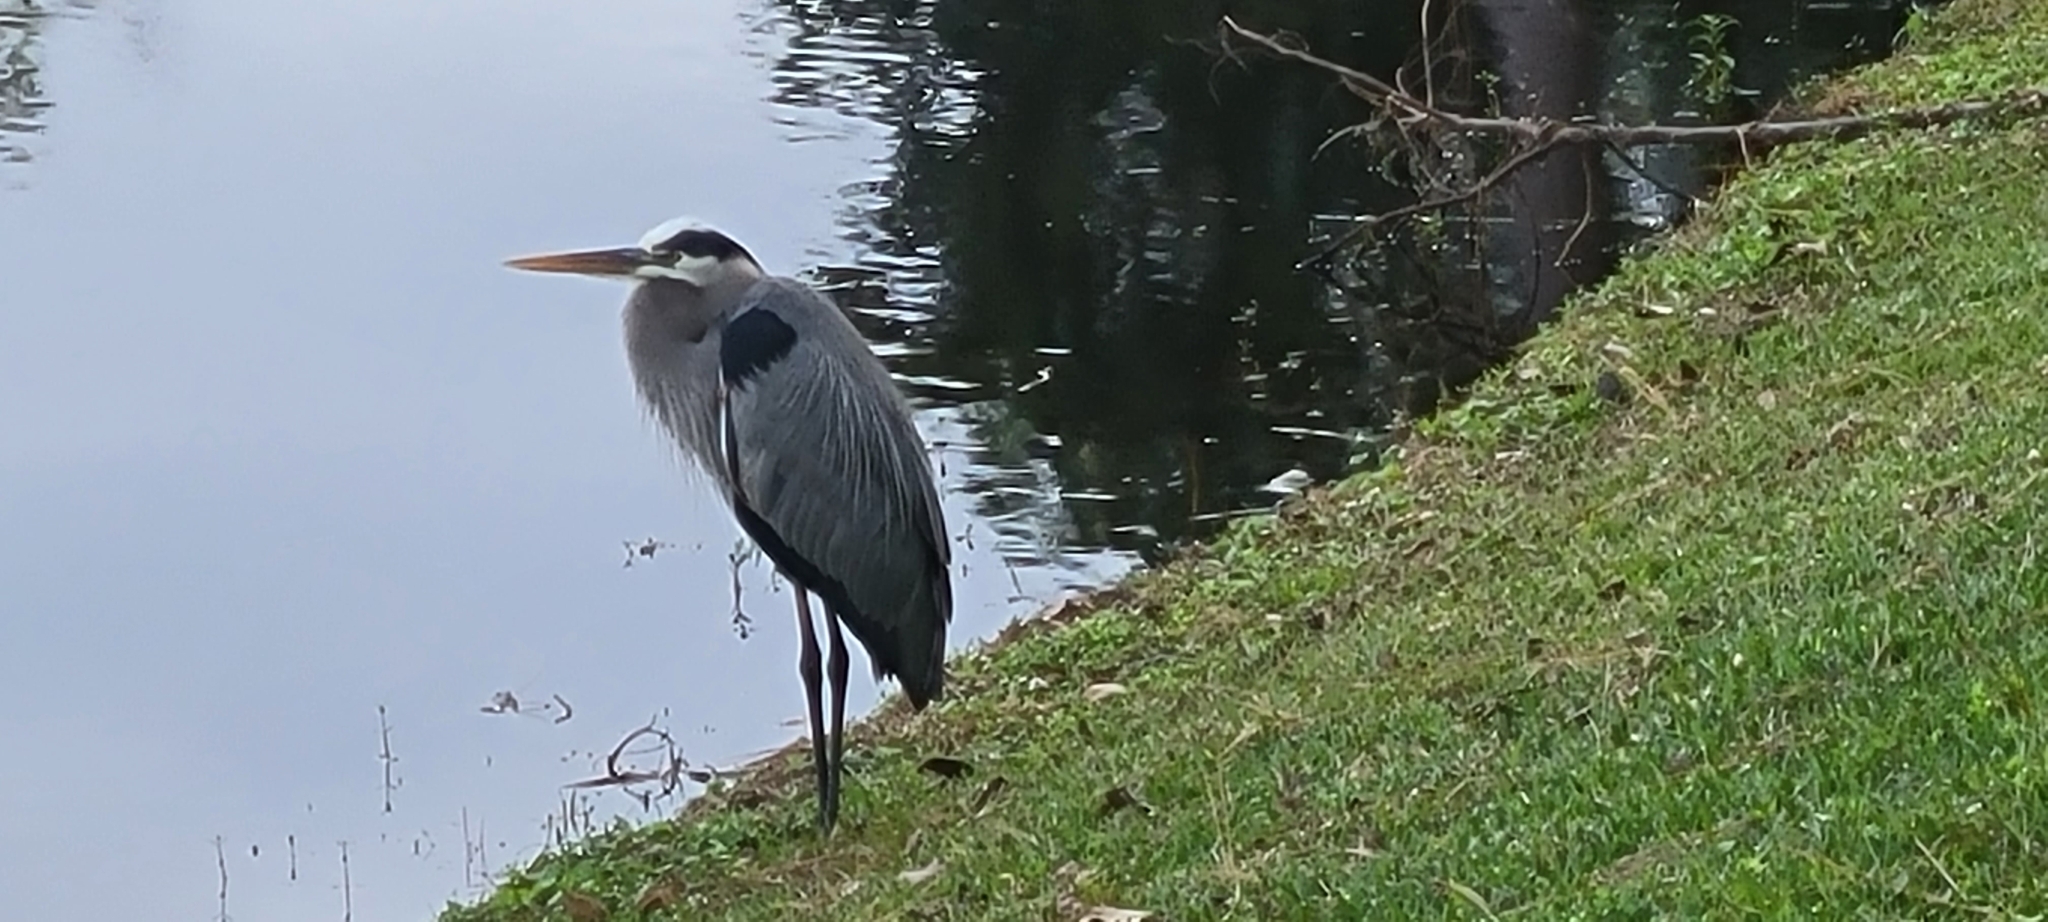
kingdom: Animalia
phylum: Chordata
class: Aves
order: Pelecaniformes
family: Ardeidae
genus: Ardea
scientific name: Ardea herodias
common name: Great blue heron
